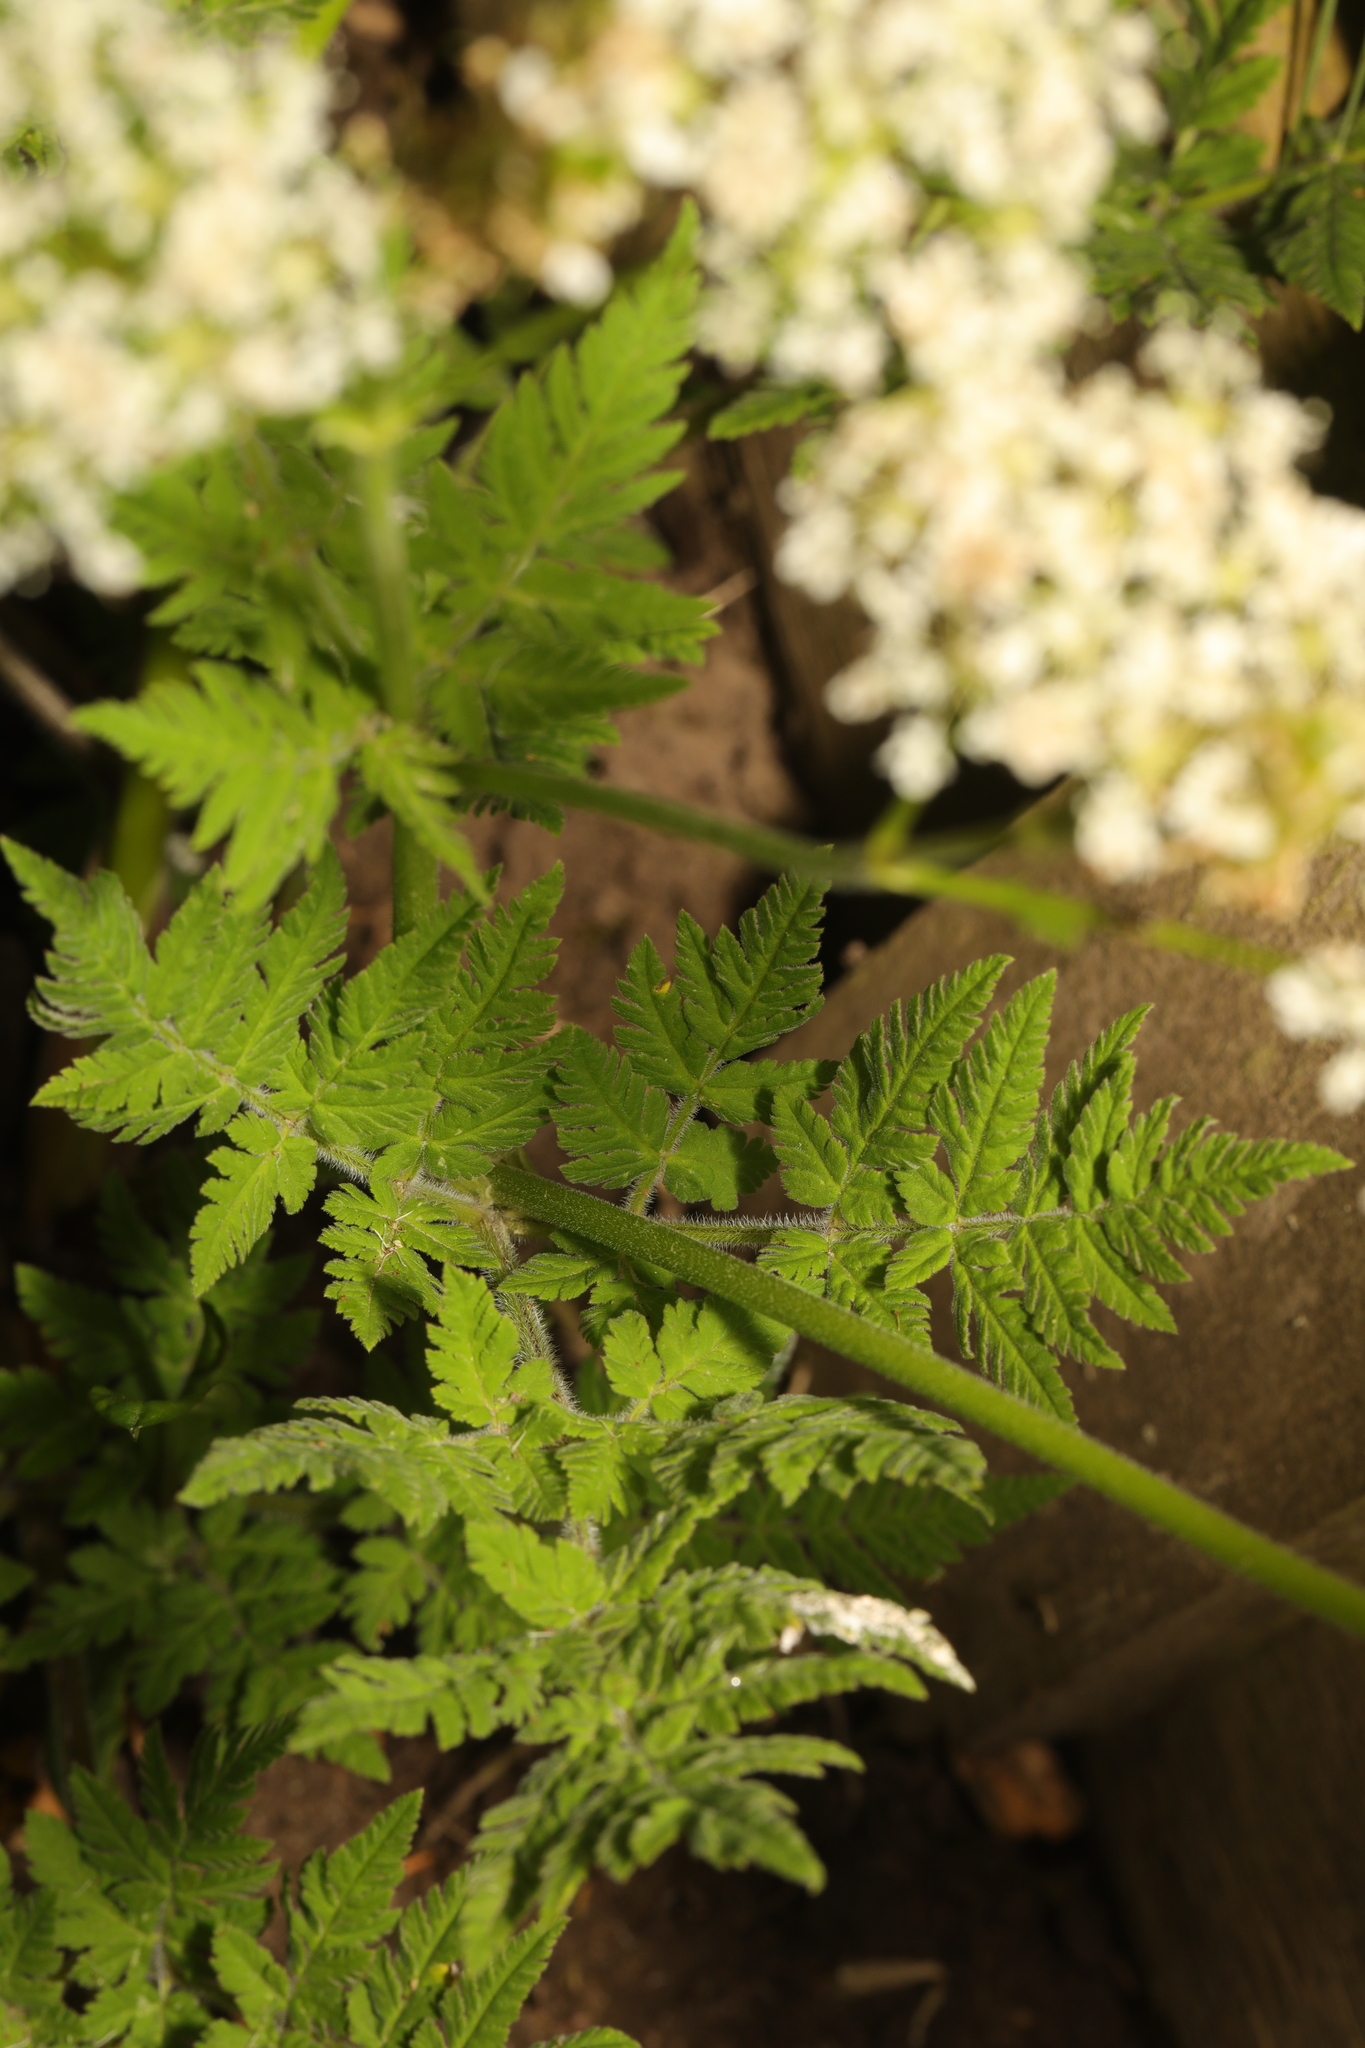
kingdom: Plantae
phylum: Tracheophyta
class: Magnoliopsida
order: Apiales
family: Apiaceae
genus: Myrrhis
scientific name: Myrrhis odorata
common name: Sweet cicely
